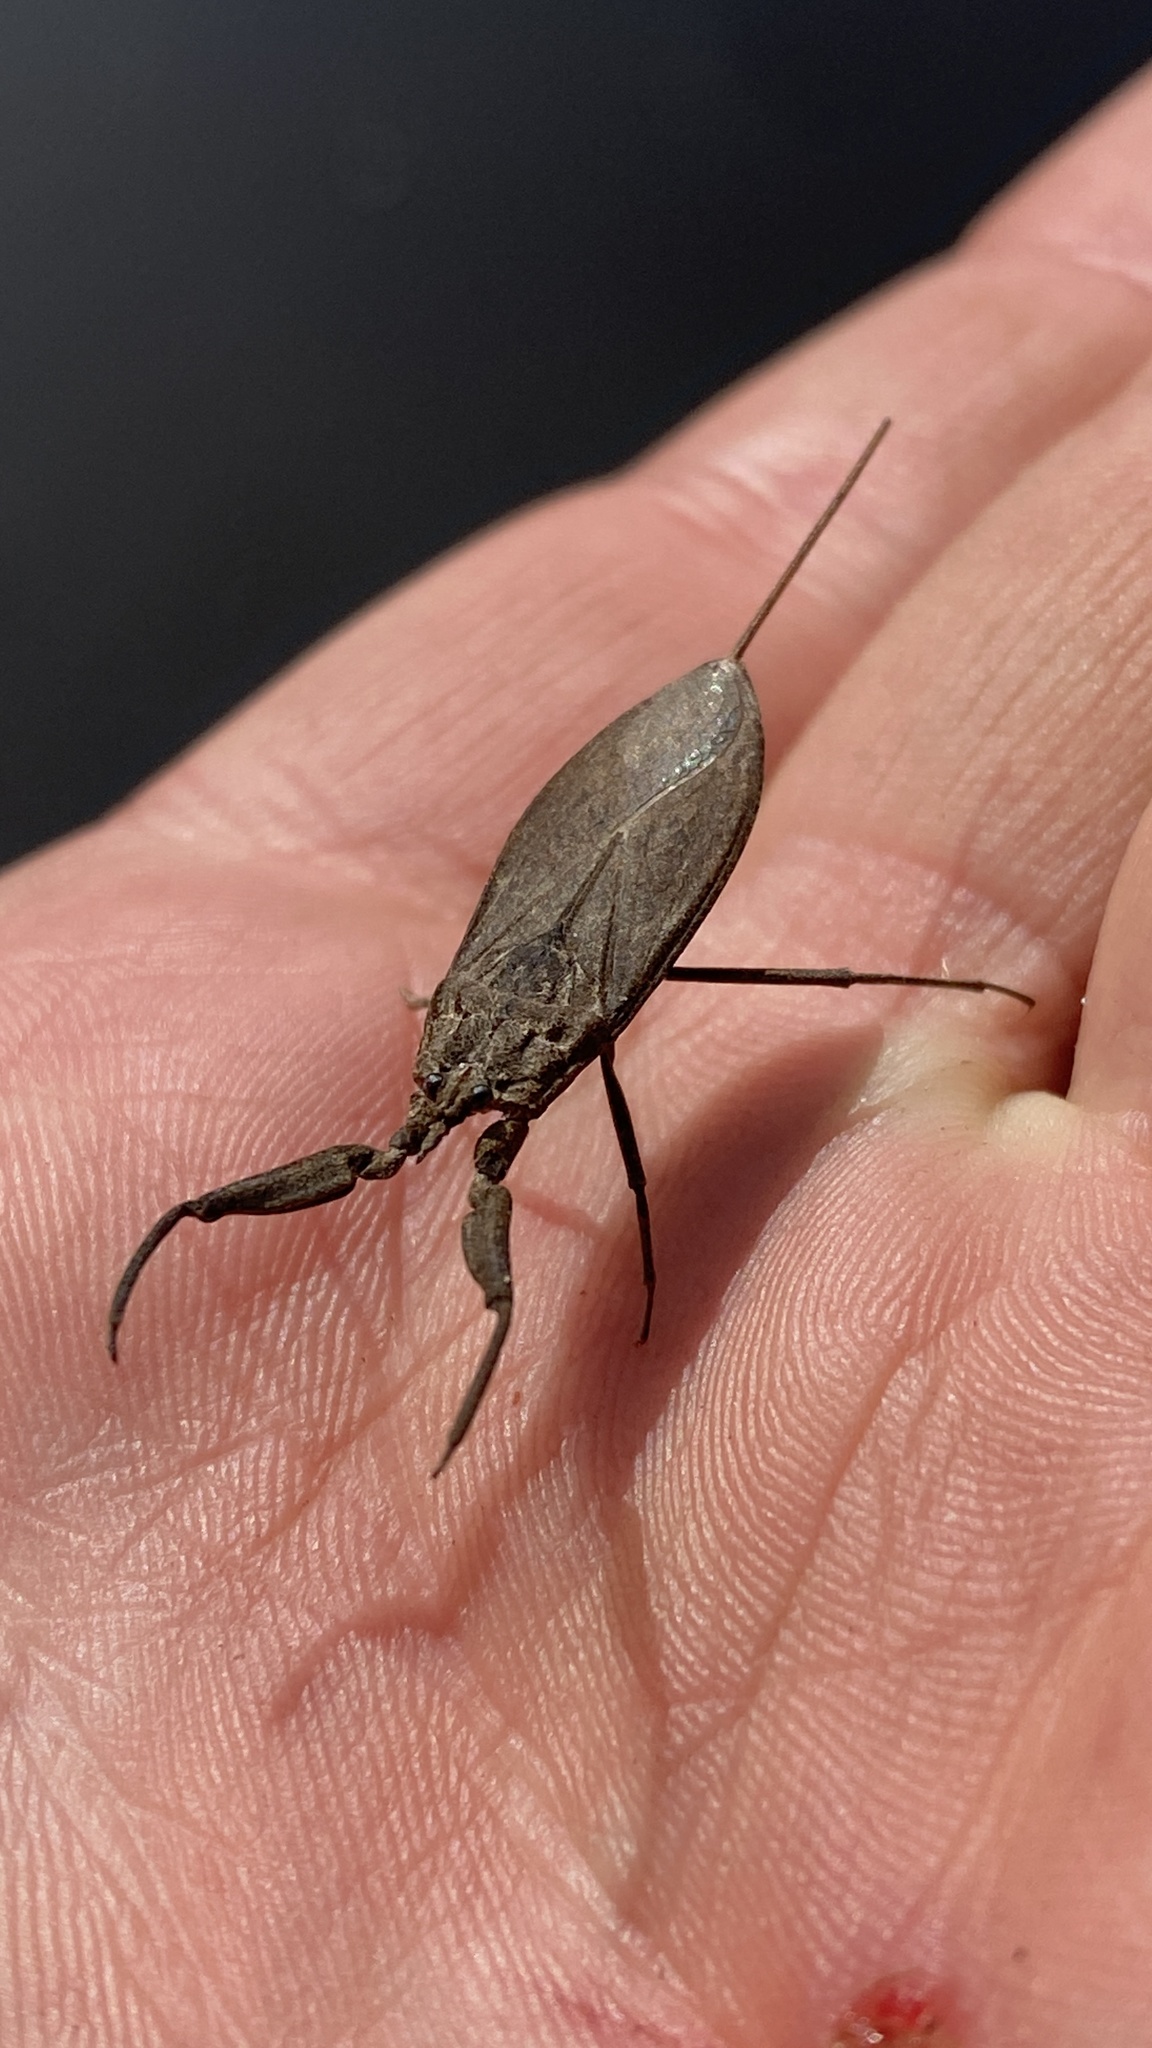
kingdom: Animalia
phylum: Arthropoda
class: Insecta
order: Hemiptera
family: Nepidae
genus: Nepa
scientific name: Nepa cinerea
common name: Water scorpion
